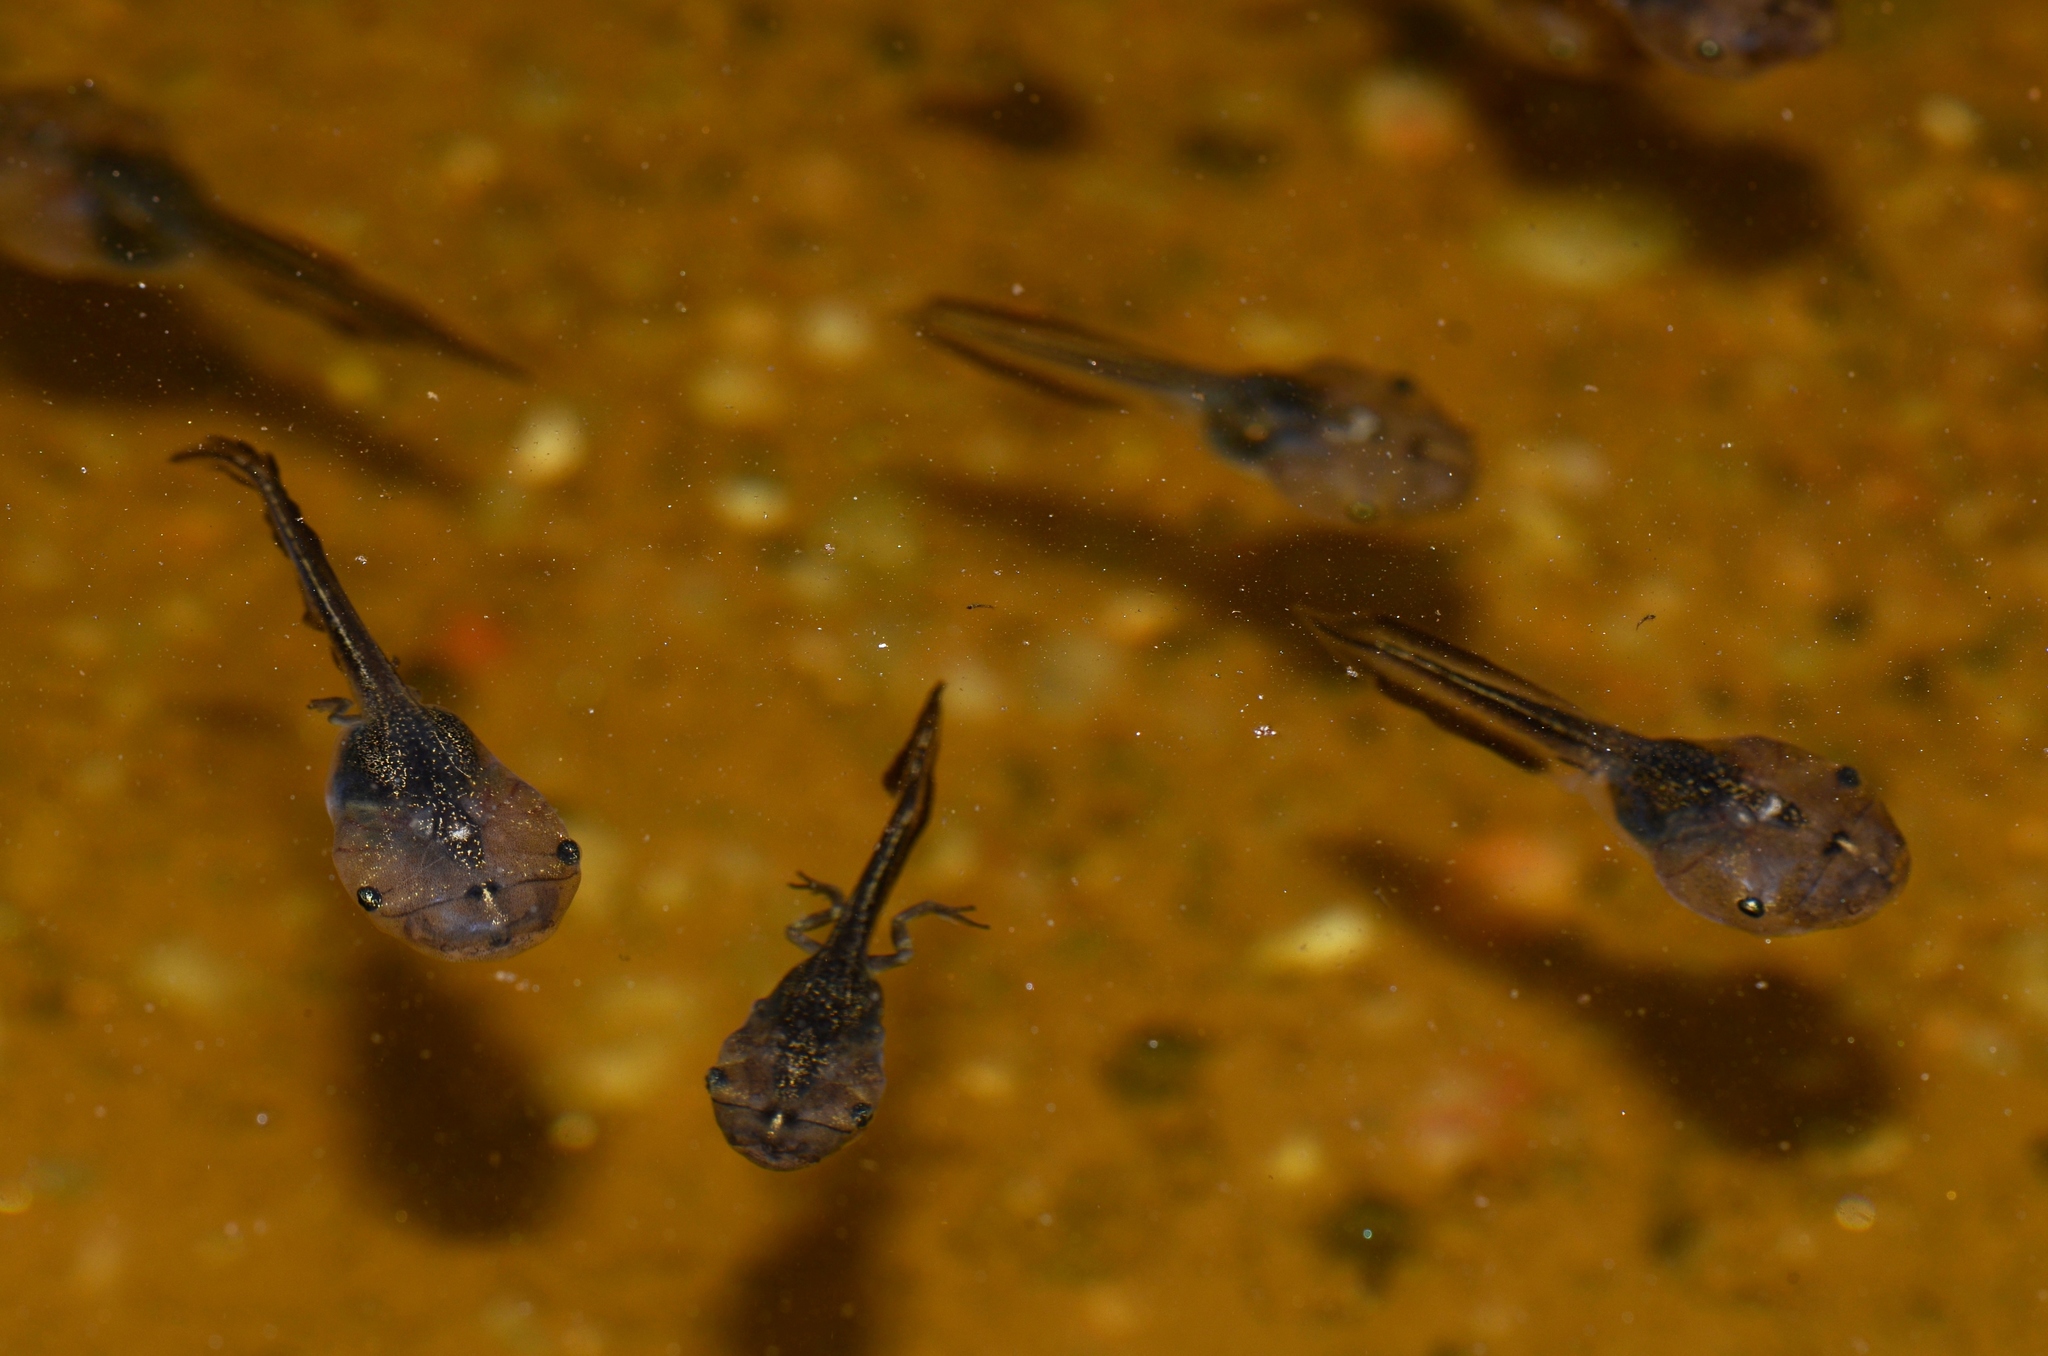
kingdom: Animalia
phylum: Chordata
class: Amphibia
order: Anura
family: Microhylidae
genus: Phrynomantis
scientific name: Phrynomantis annectens
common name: Marbled rubber frog
